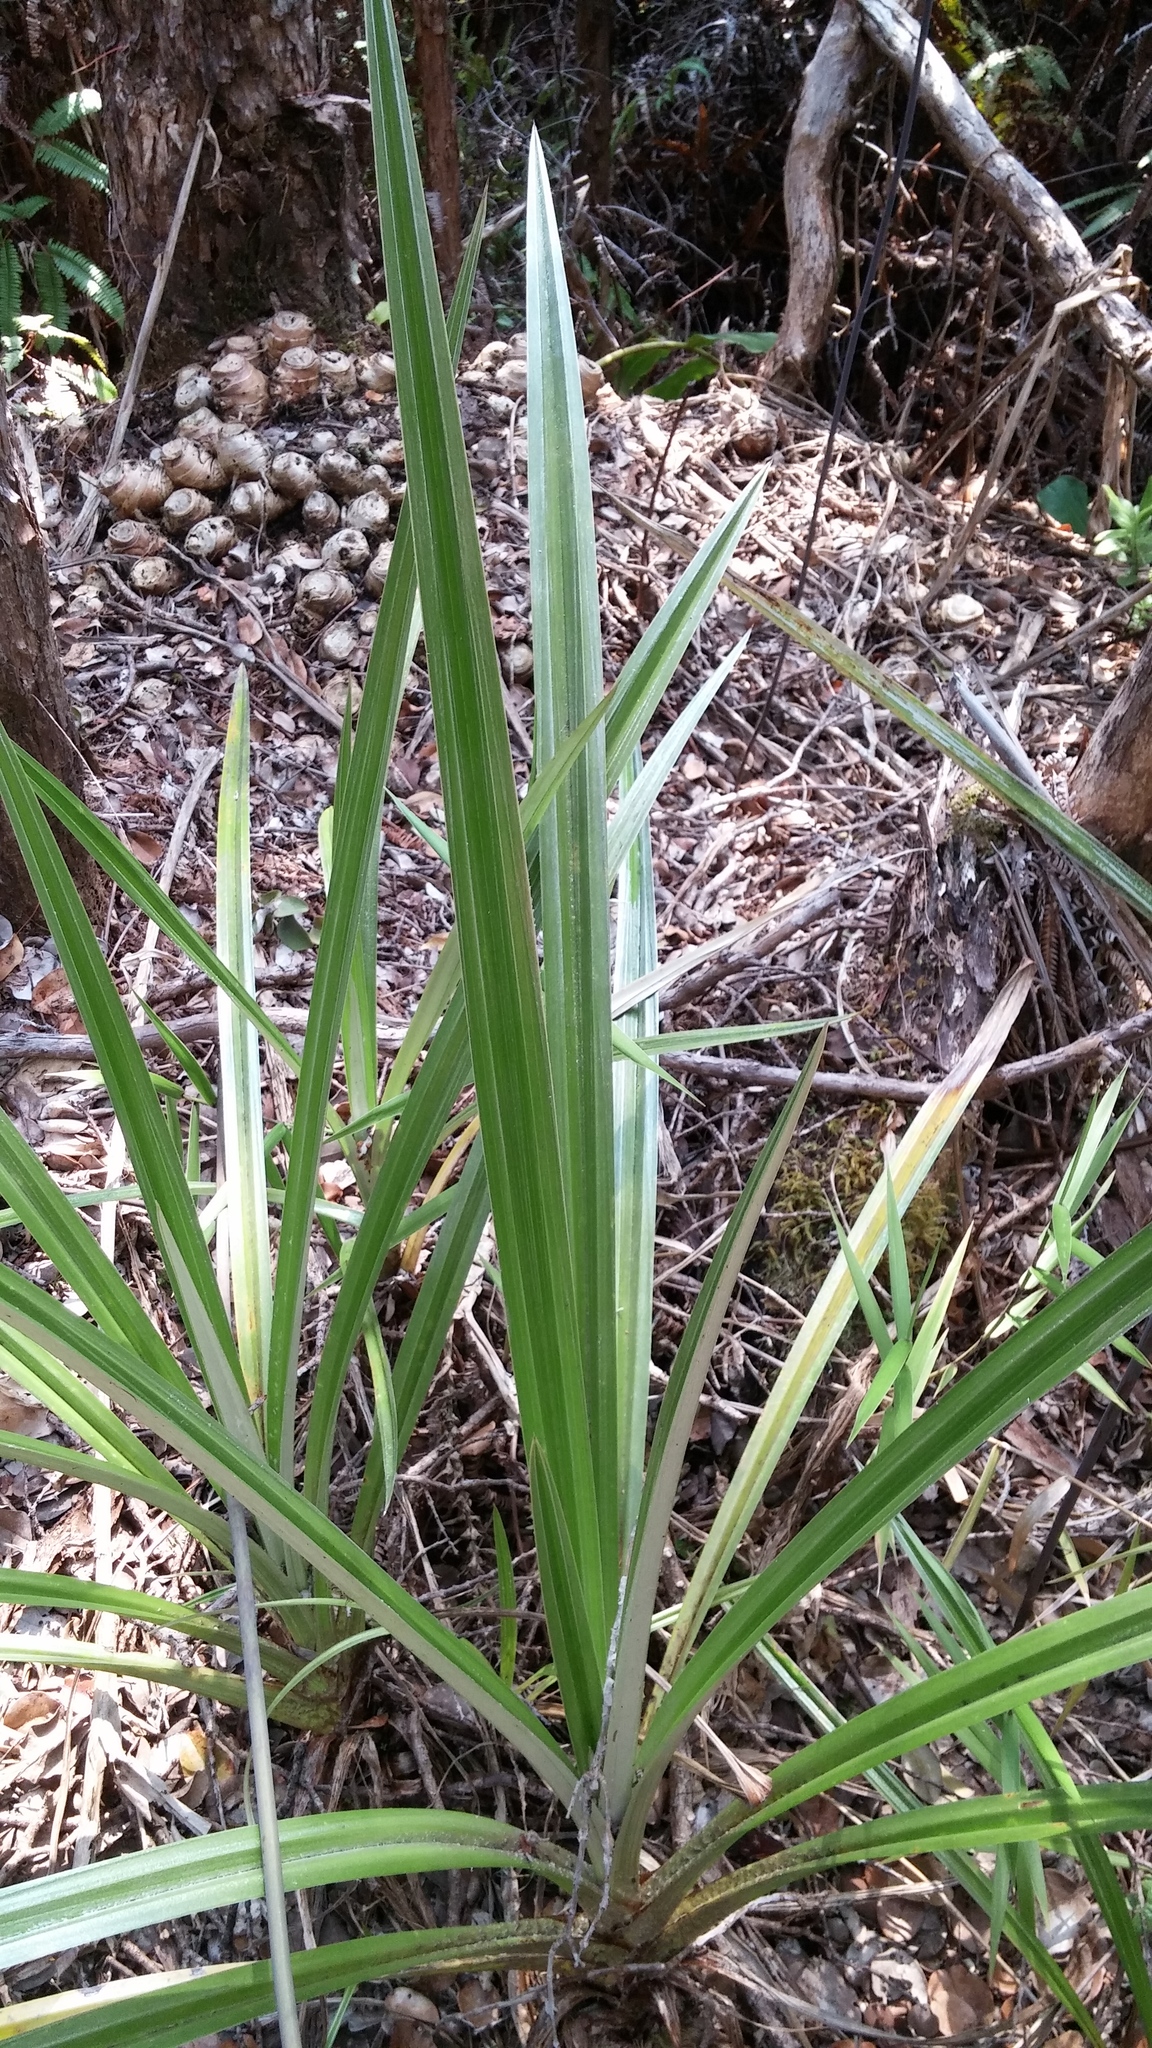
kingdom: Plantae
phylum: Tracheophyta
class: Liliopsida
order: Asparagales
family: Asteliaceae
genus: Astelia
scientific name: Astelia menziesiana
